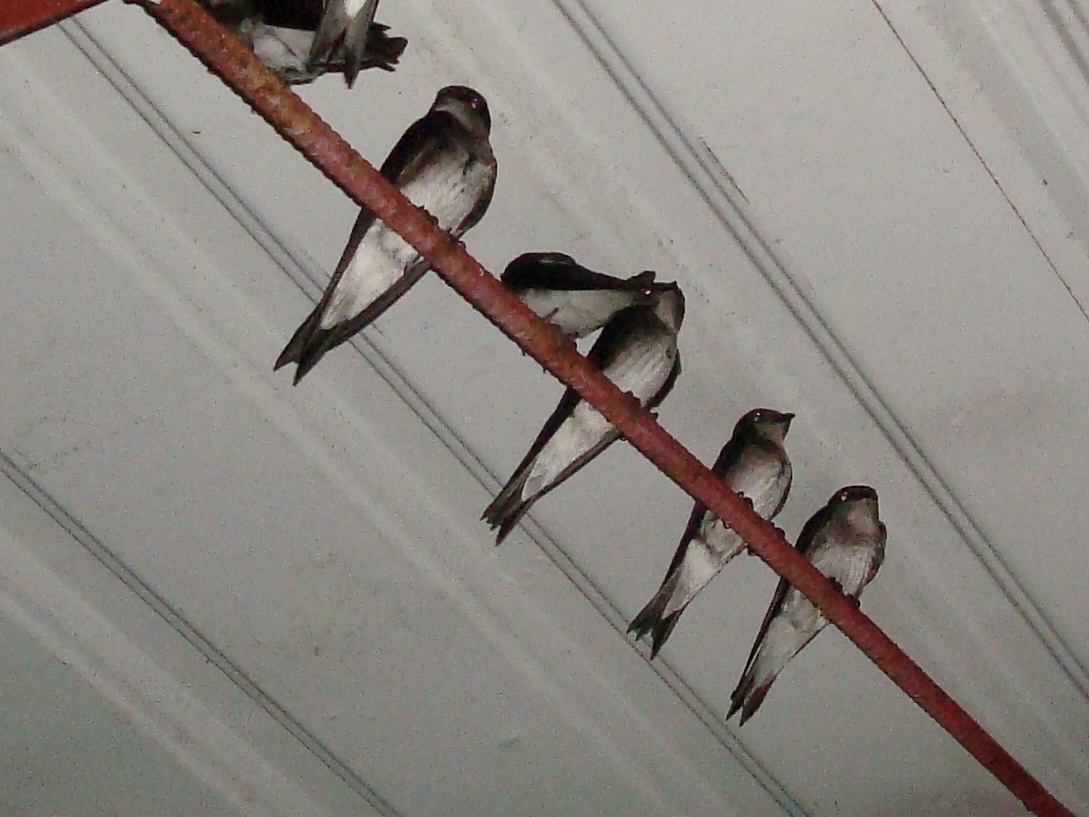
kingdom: Animalia
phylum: Chordata
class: Aves
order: Passeriformes
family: Hirundinidae
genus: Progne
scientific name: Progne subis
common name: Purple martin
